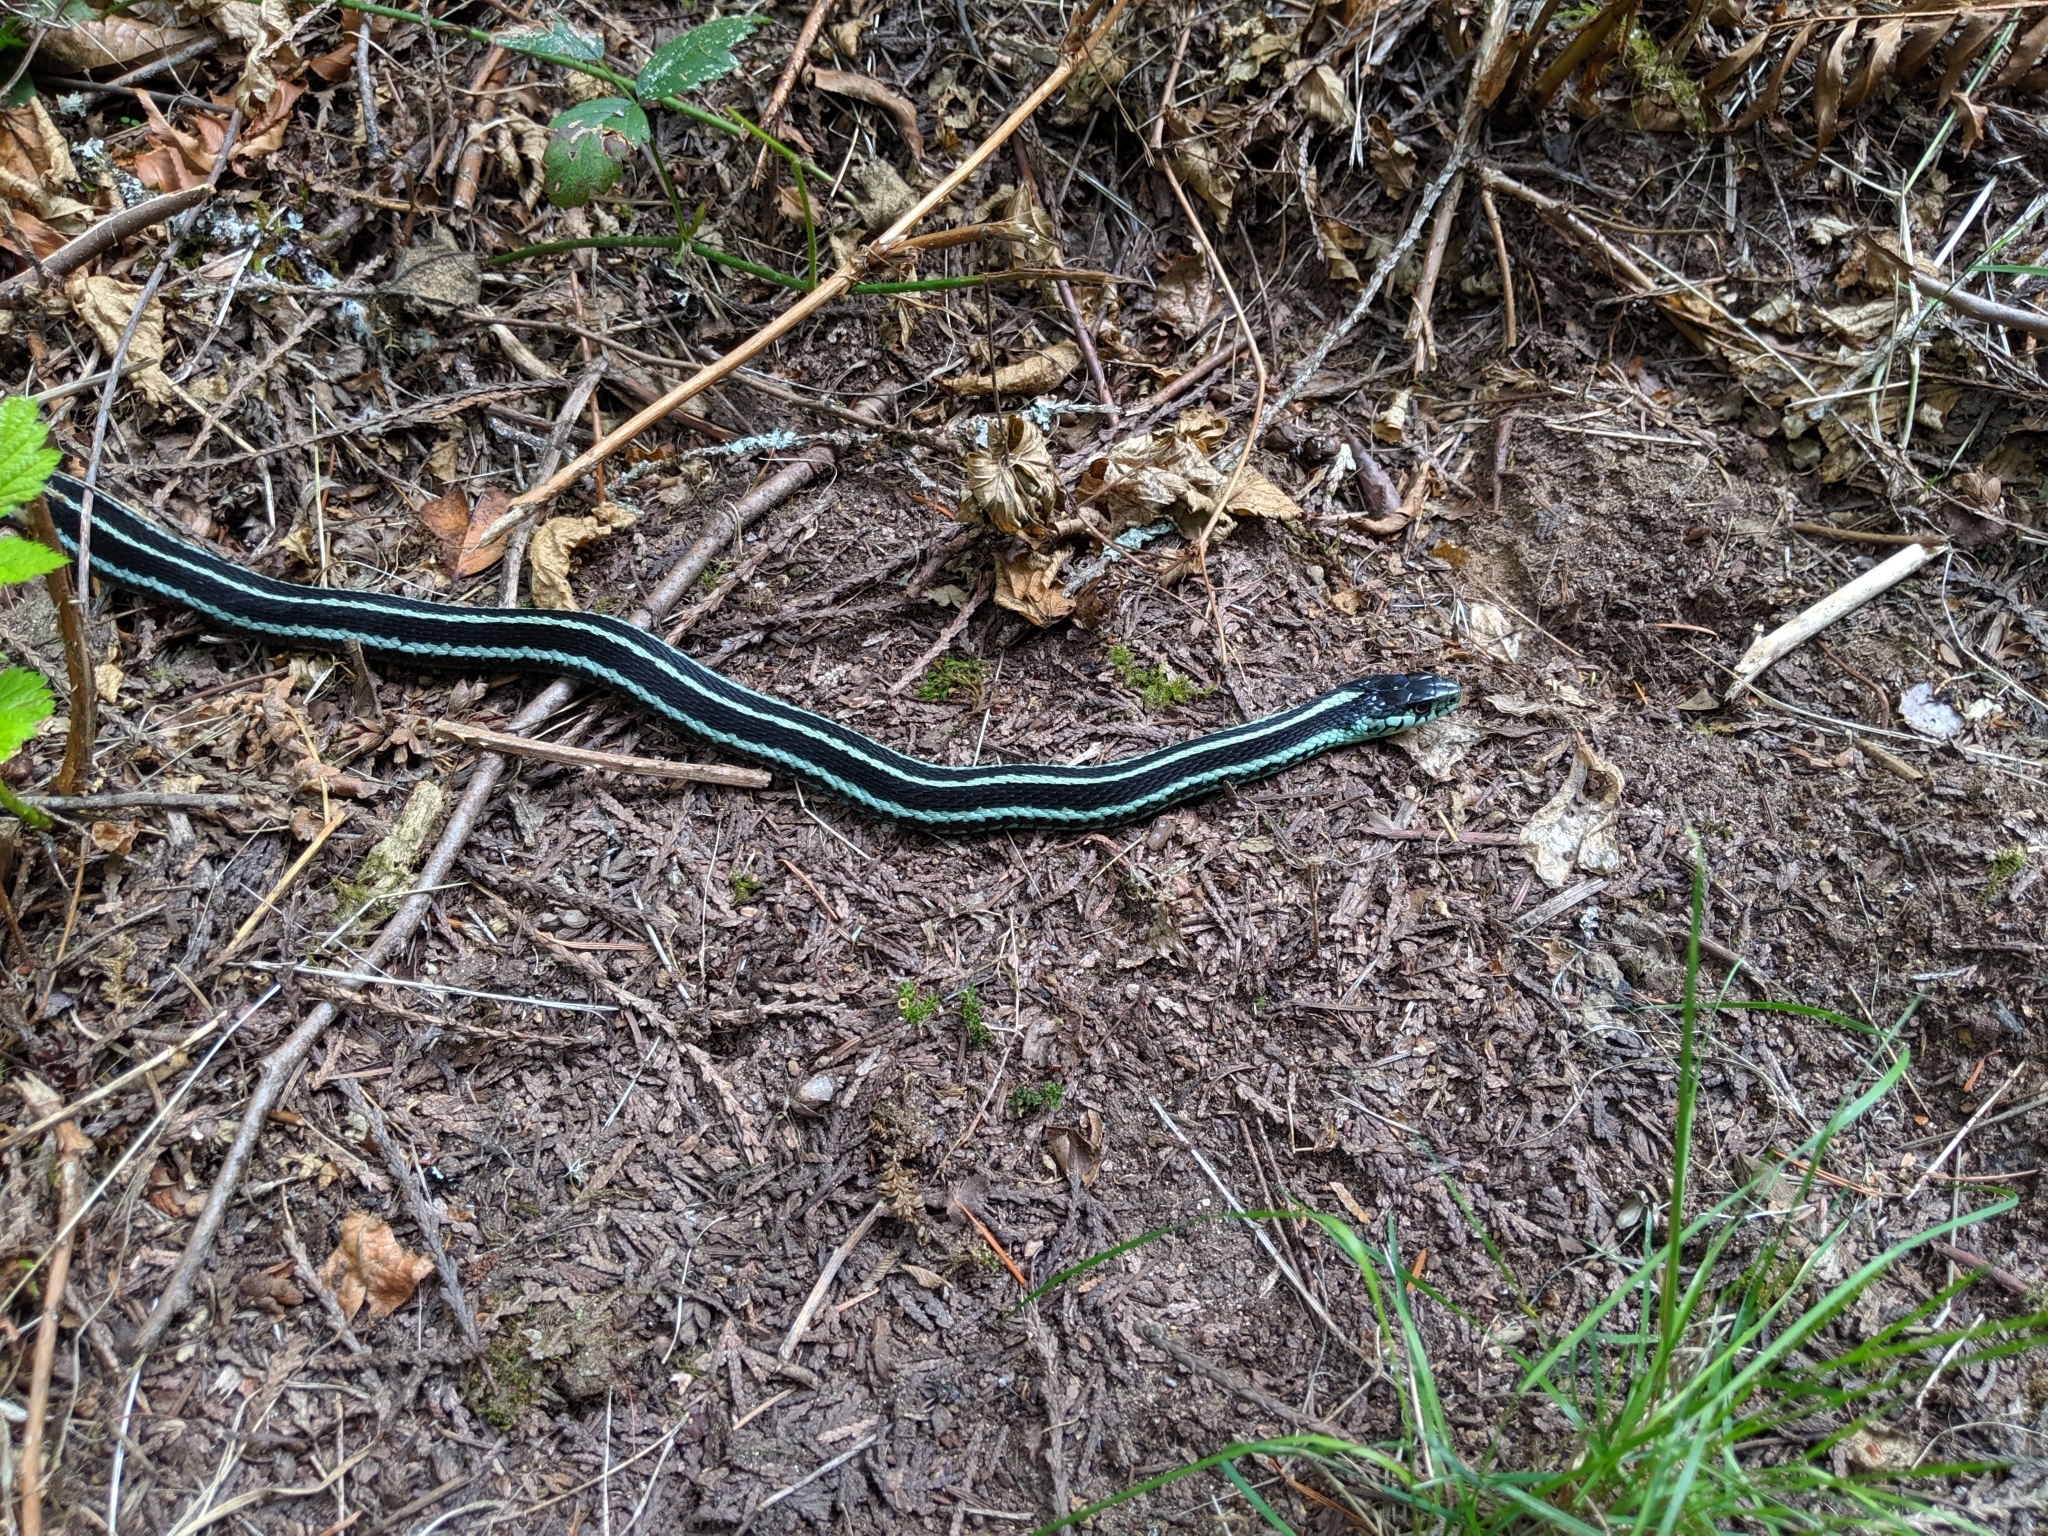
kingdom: Animalia
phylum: Chordata
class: Squamata
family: Colubridae
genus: Thamnophis
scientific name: Thamnophis sirtalis
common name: Common garter snake
